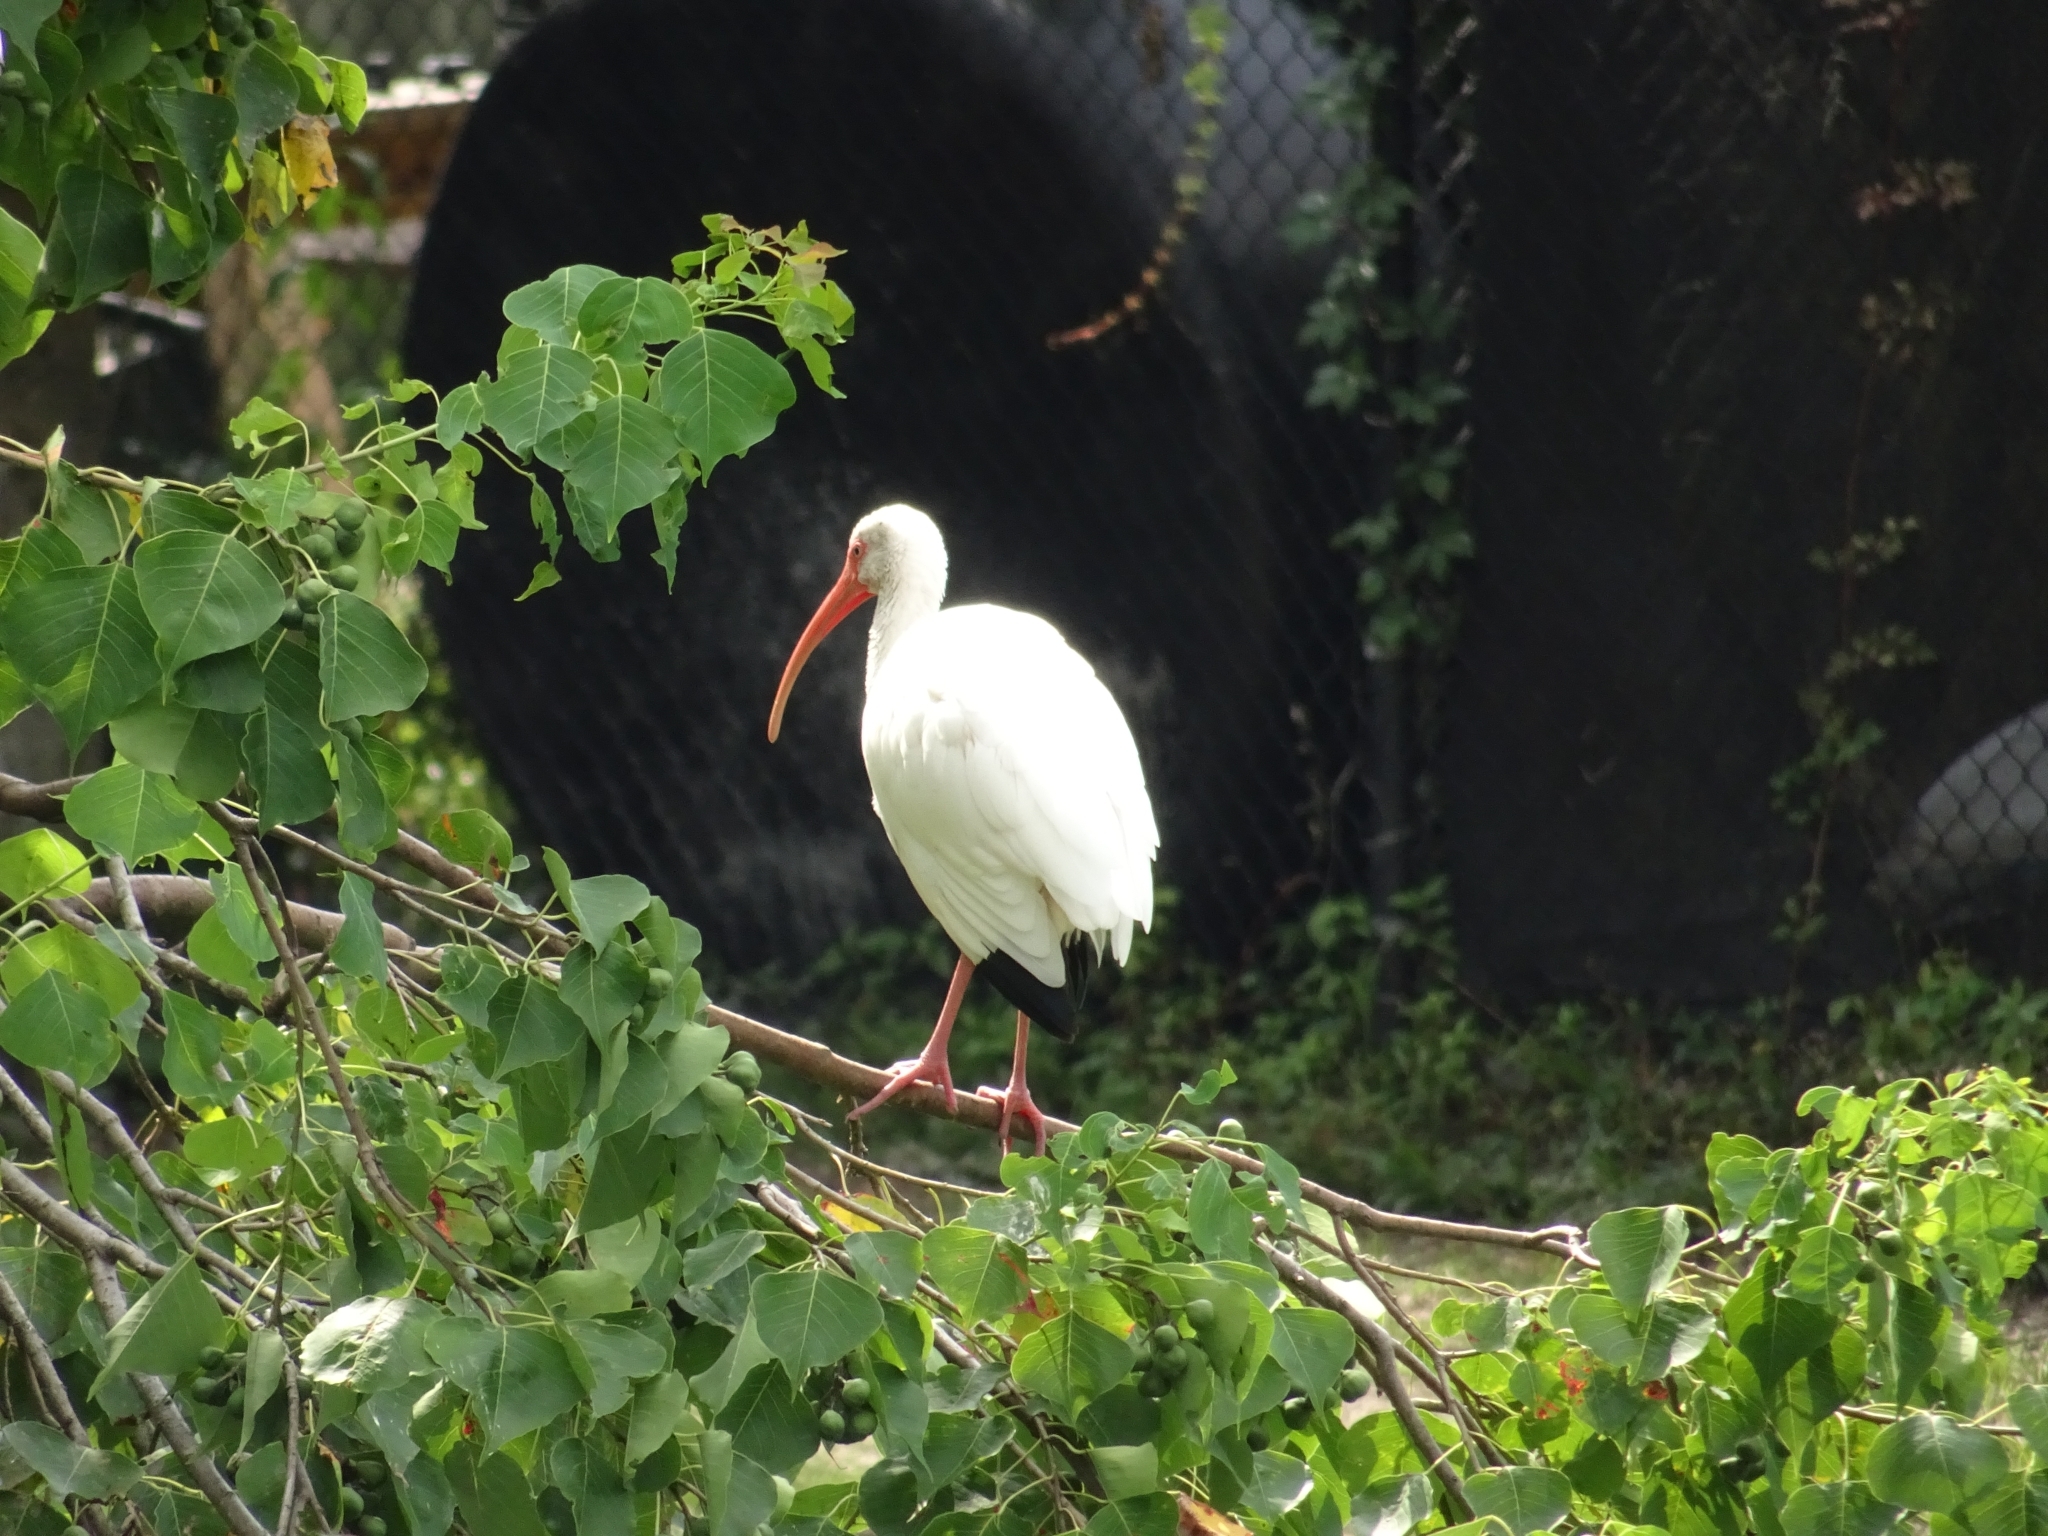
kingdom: Animalia
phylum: Chordata
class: Aves
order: Pelecaniformes
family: Threskiornithidae
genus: Eudocimus
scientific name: Eudocimus albus
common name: White ibis
